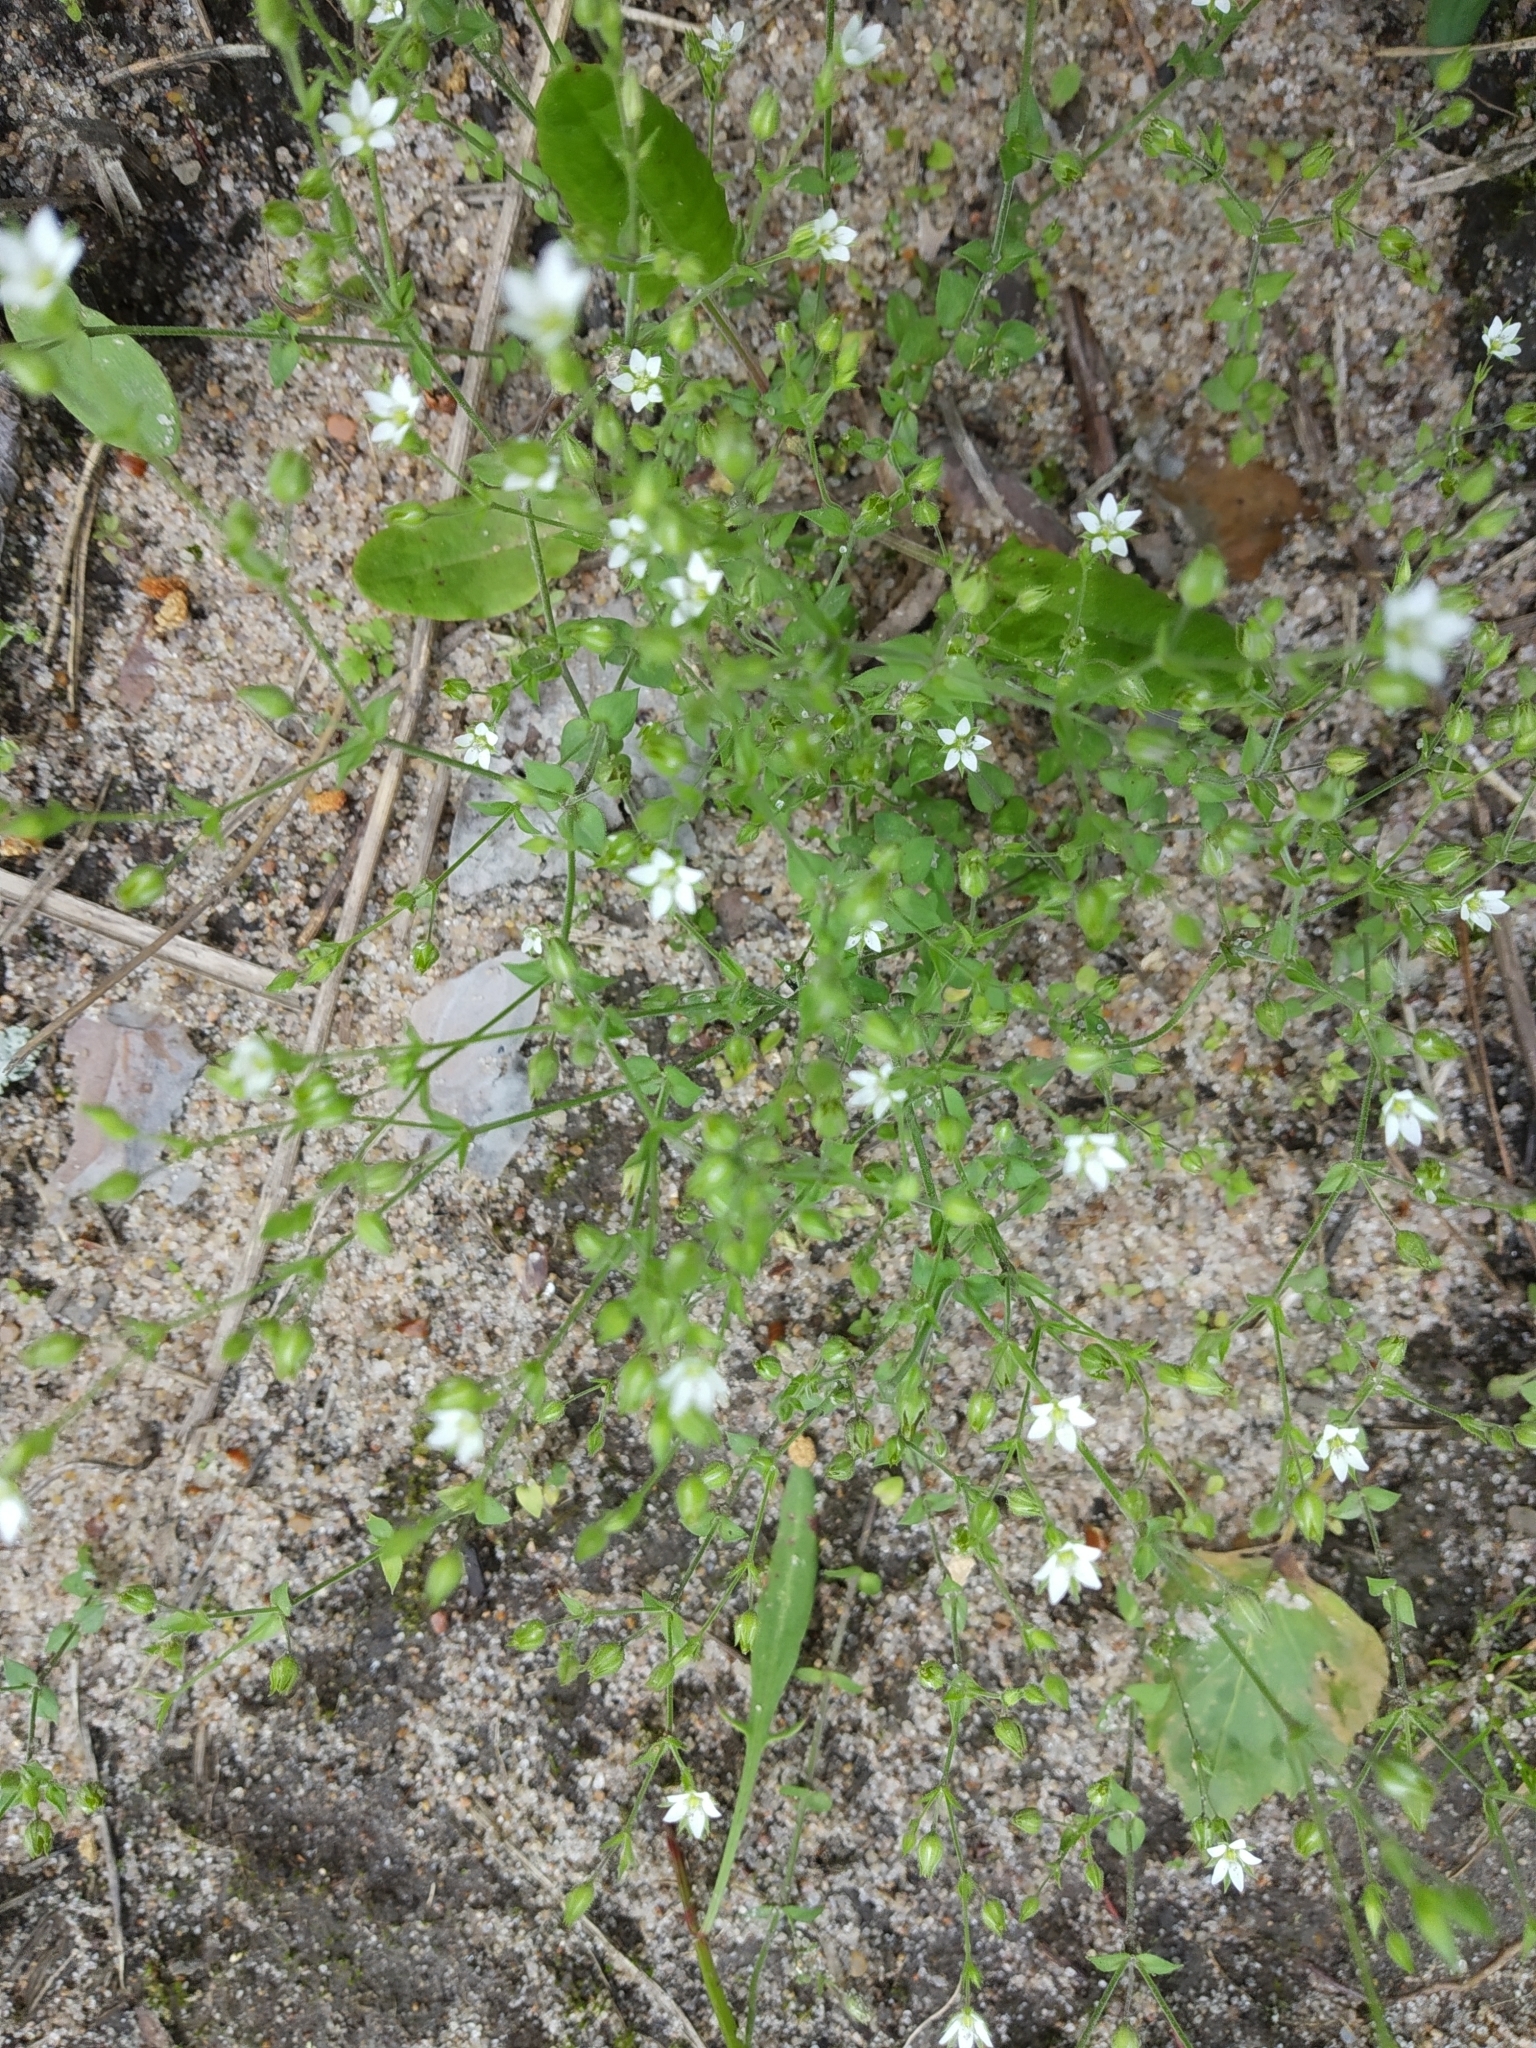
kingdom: Plantae
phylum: Tracheophyta
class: Magnoliopsida
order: Caryophyllales
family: Caryophyllaceae
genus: Arenaria
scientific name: Arenaria serpyllifolia
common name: Thyme-leaved sandwort
